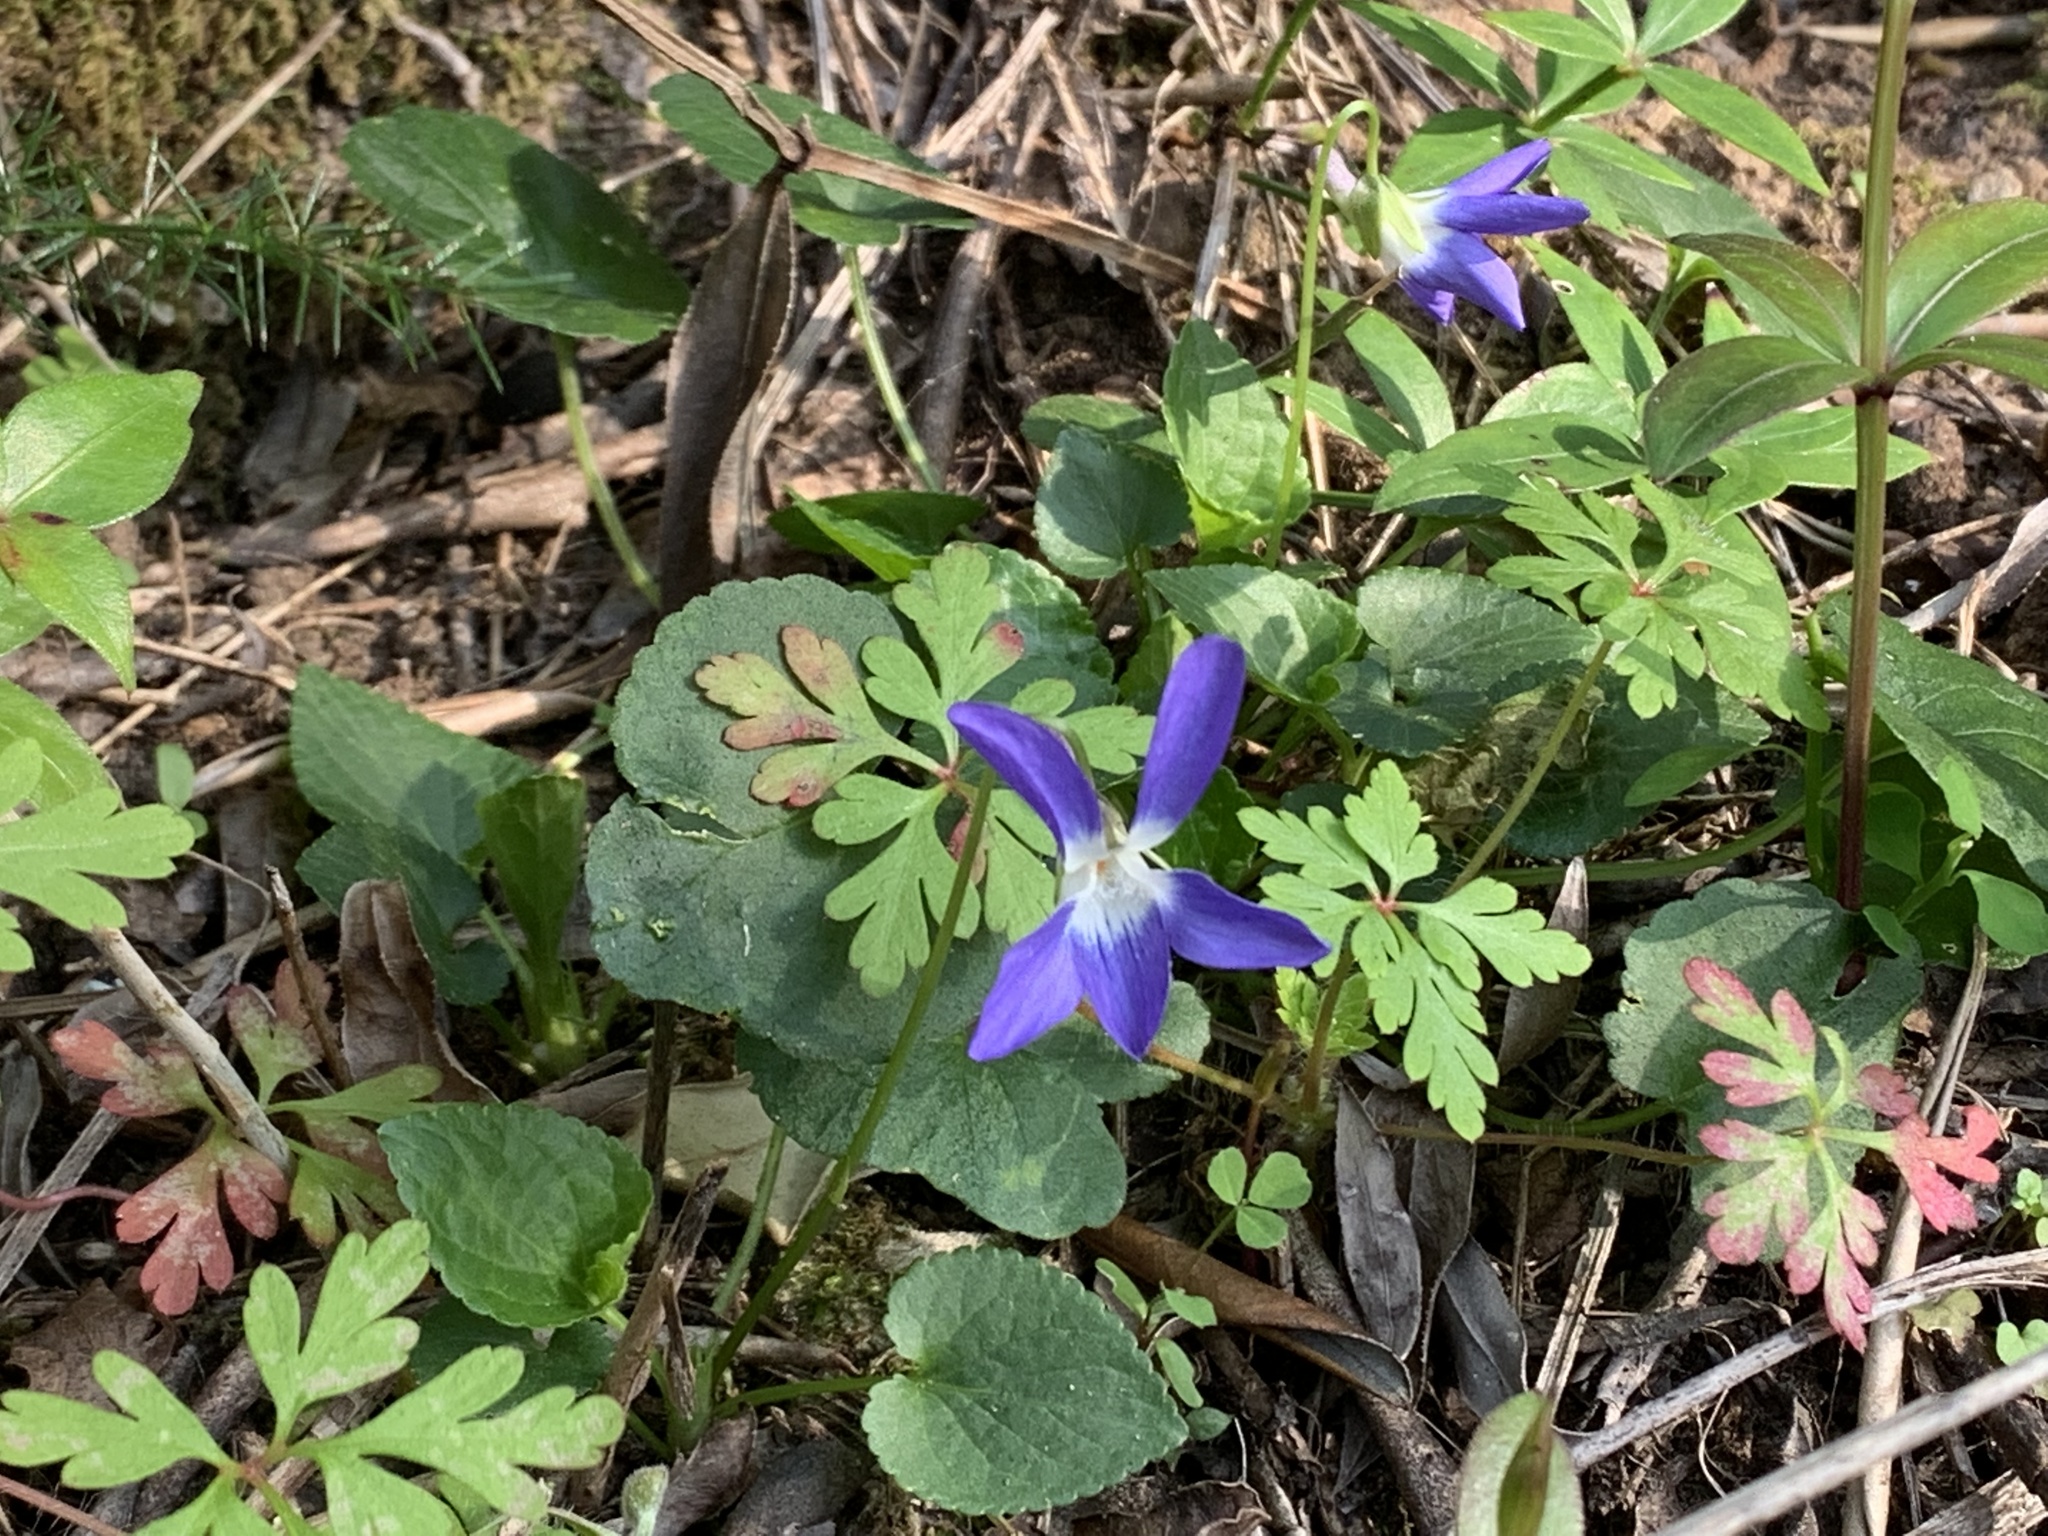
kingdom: Plantae
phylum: Tracheophyta
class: Magnoliopsida
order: Malpighiales
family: Violaceae
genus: Viola
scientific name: Viola suavis
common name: Russian violet
